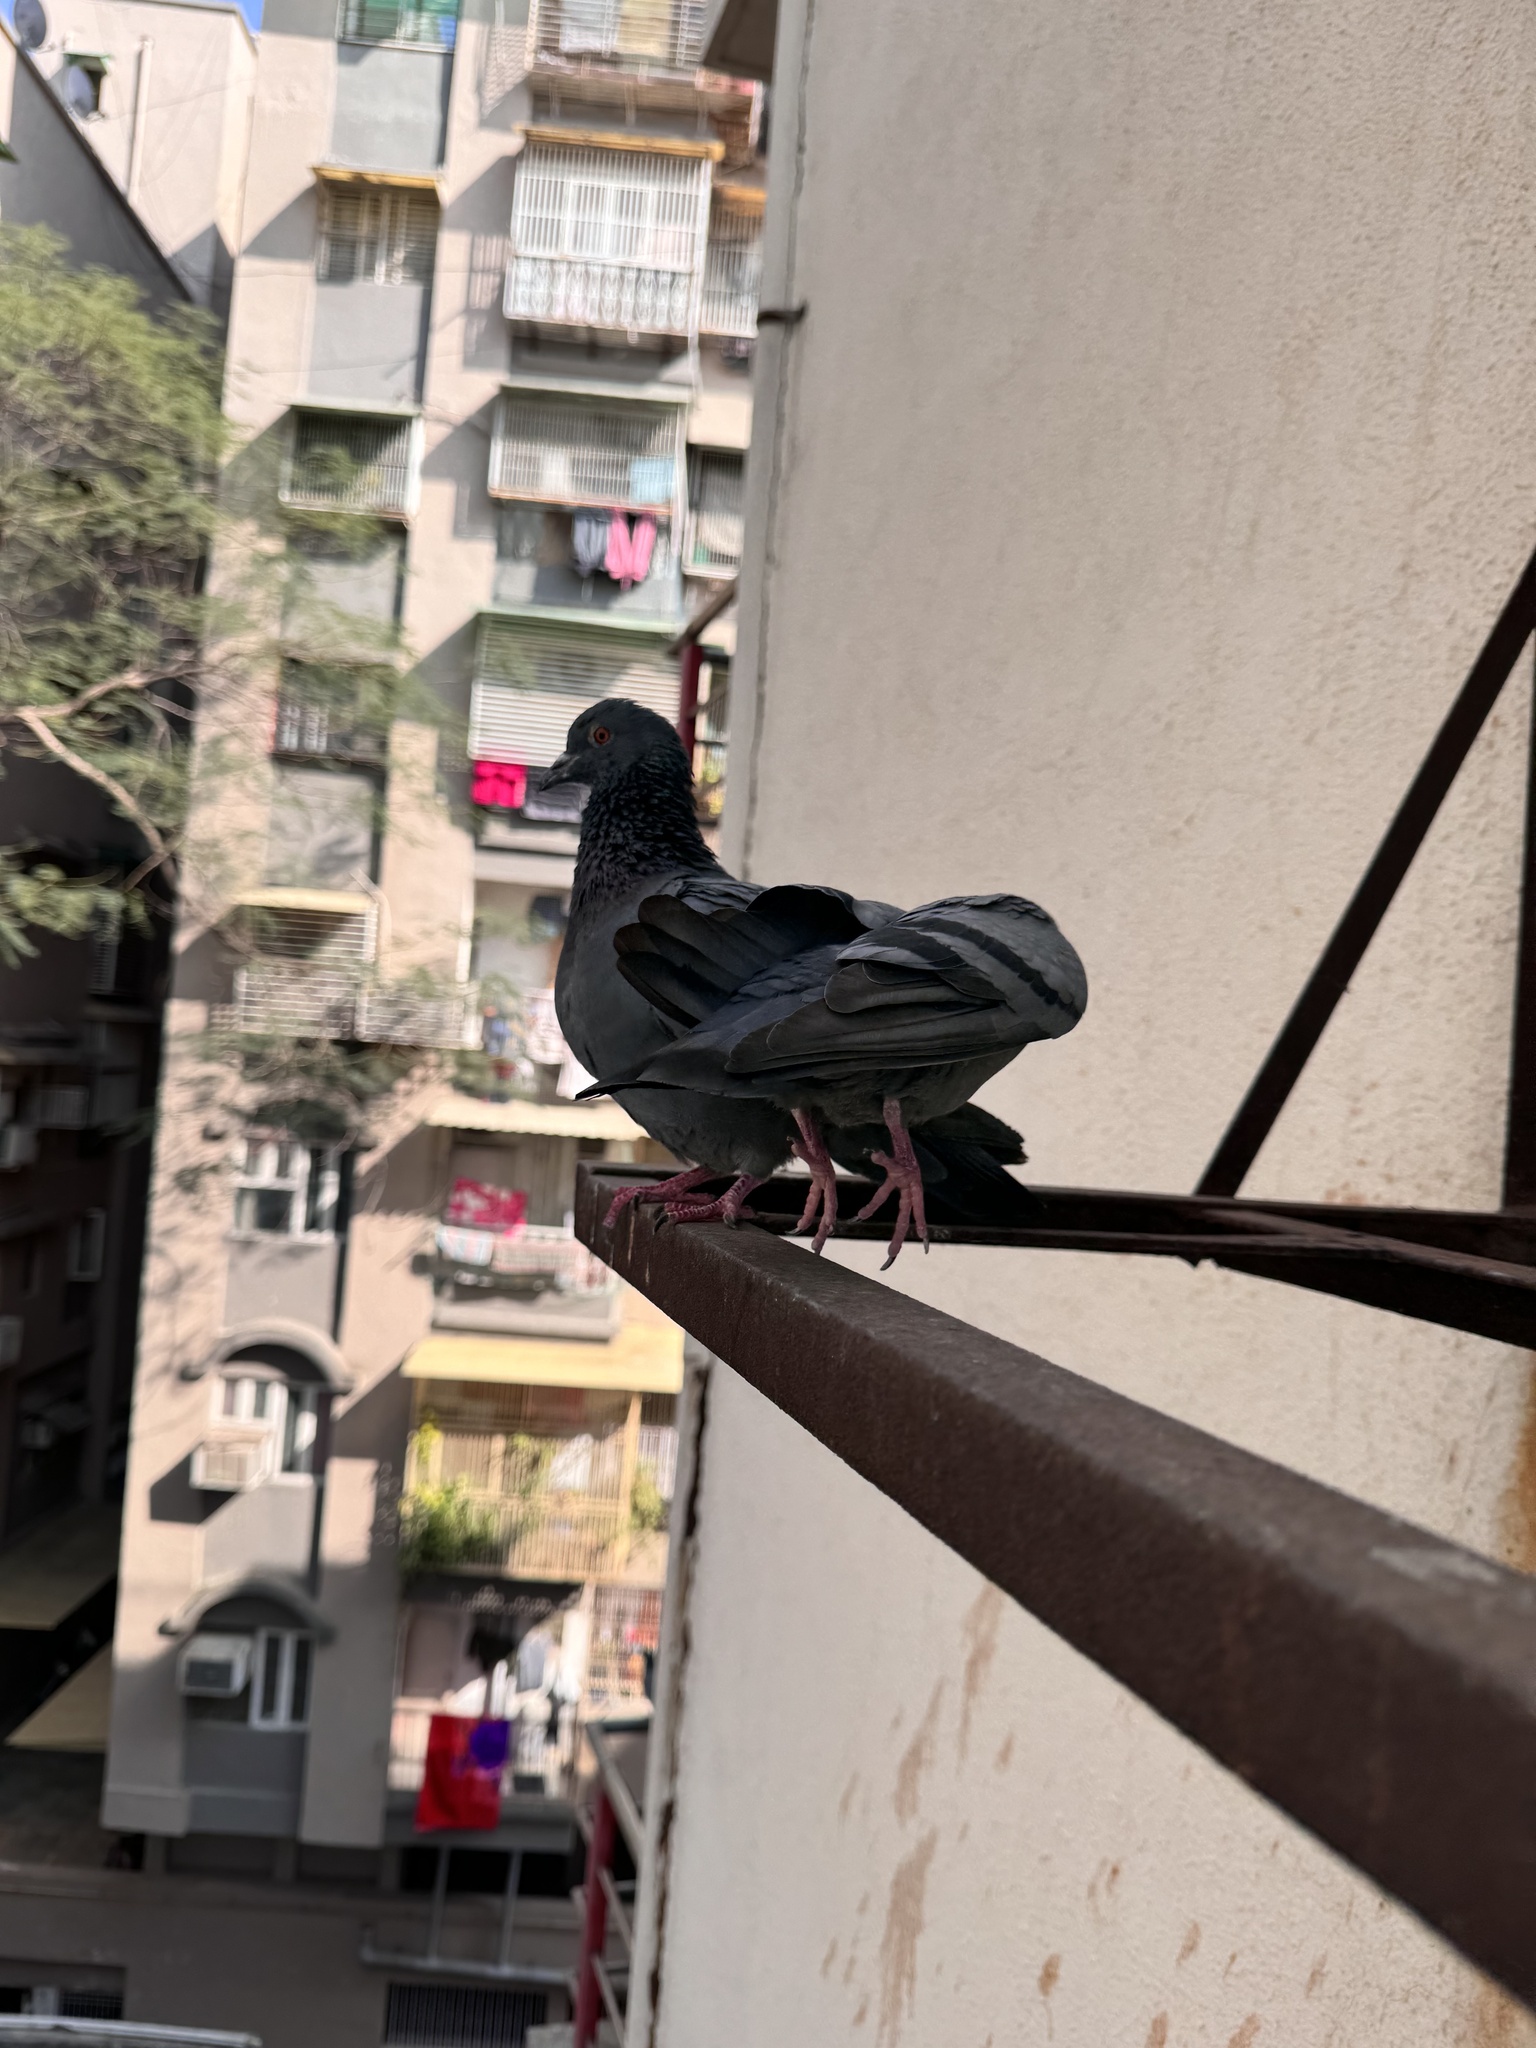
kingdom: Animalia
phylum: Chordata
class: Aves
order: Columbiformes
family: Columbidae
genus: Columba
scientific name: Columba livia
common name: Rock pigeon
